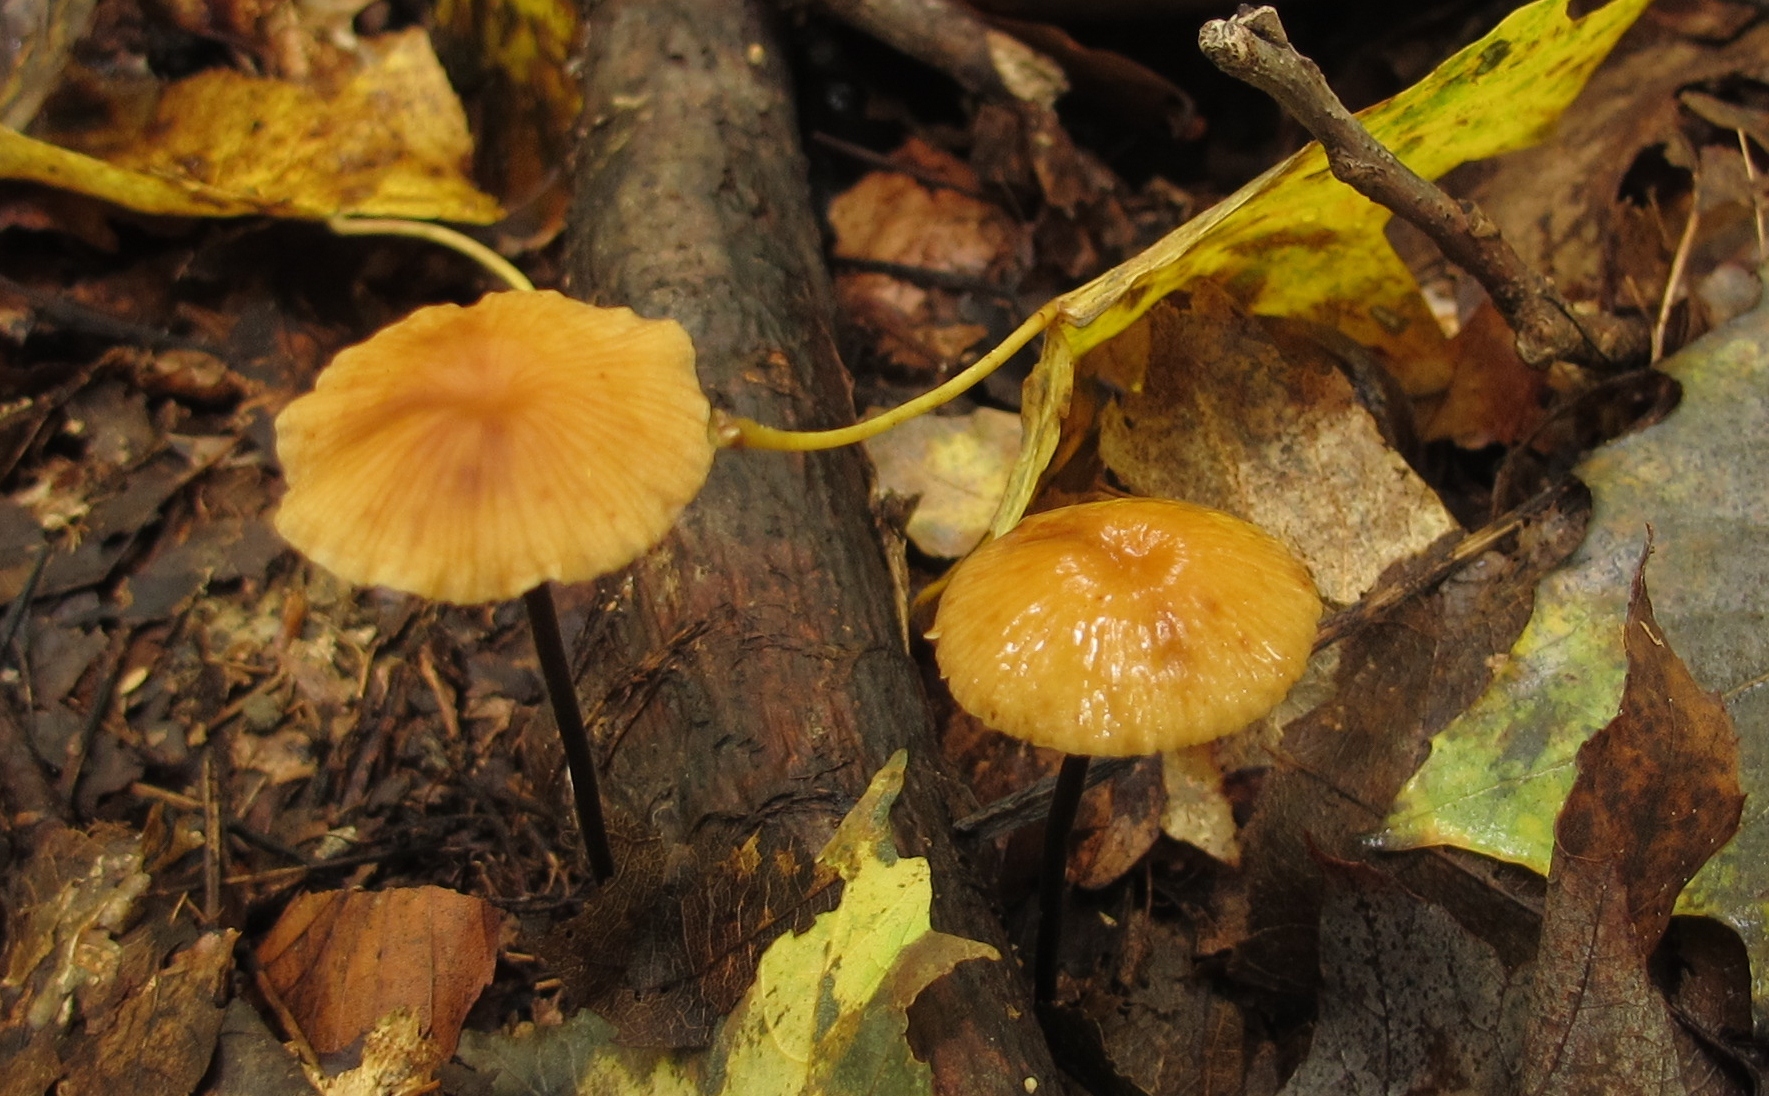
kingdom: Fungi
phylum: Basidiomycota
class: Agaricomycetes
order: Agaricales
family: Physalacriaceae
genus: Rhizomarasmius
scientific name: Rhizomarasmius pyrrhocephalus
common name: Hairy long stem marasmius
